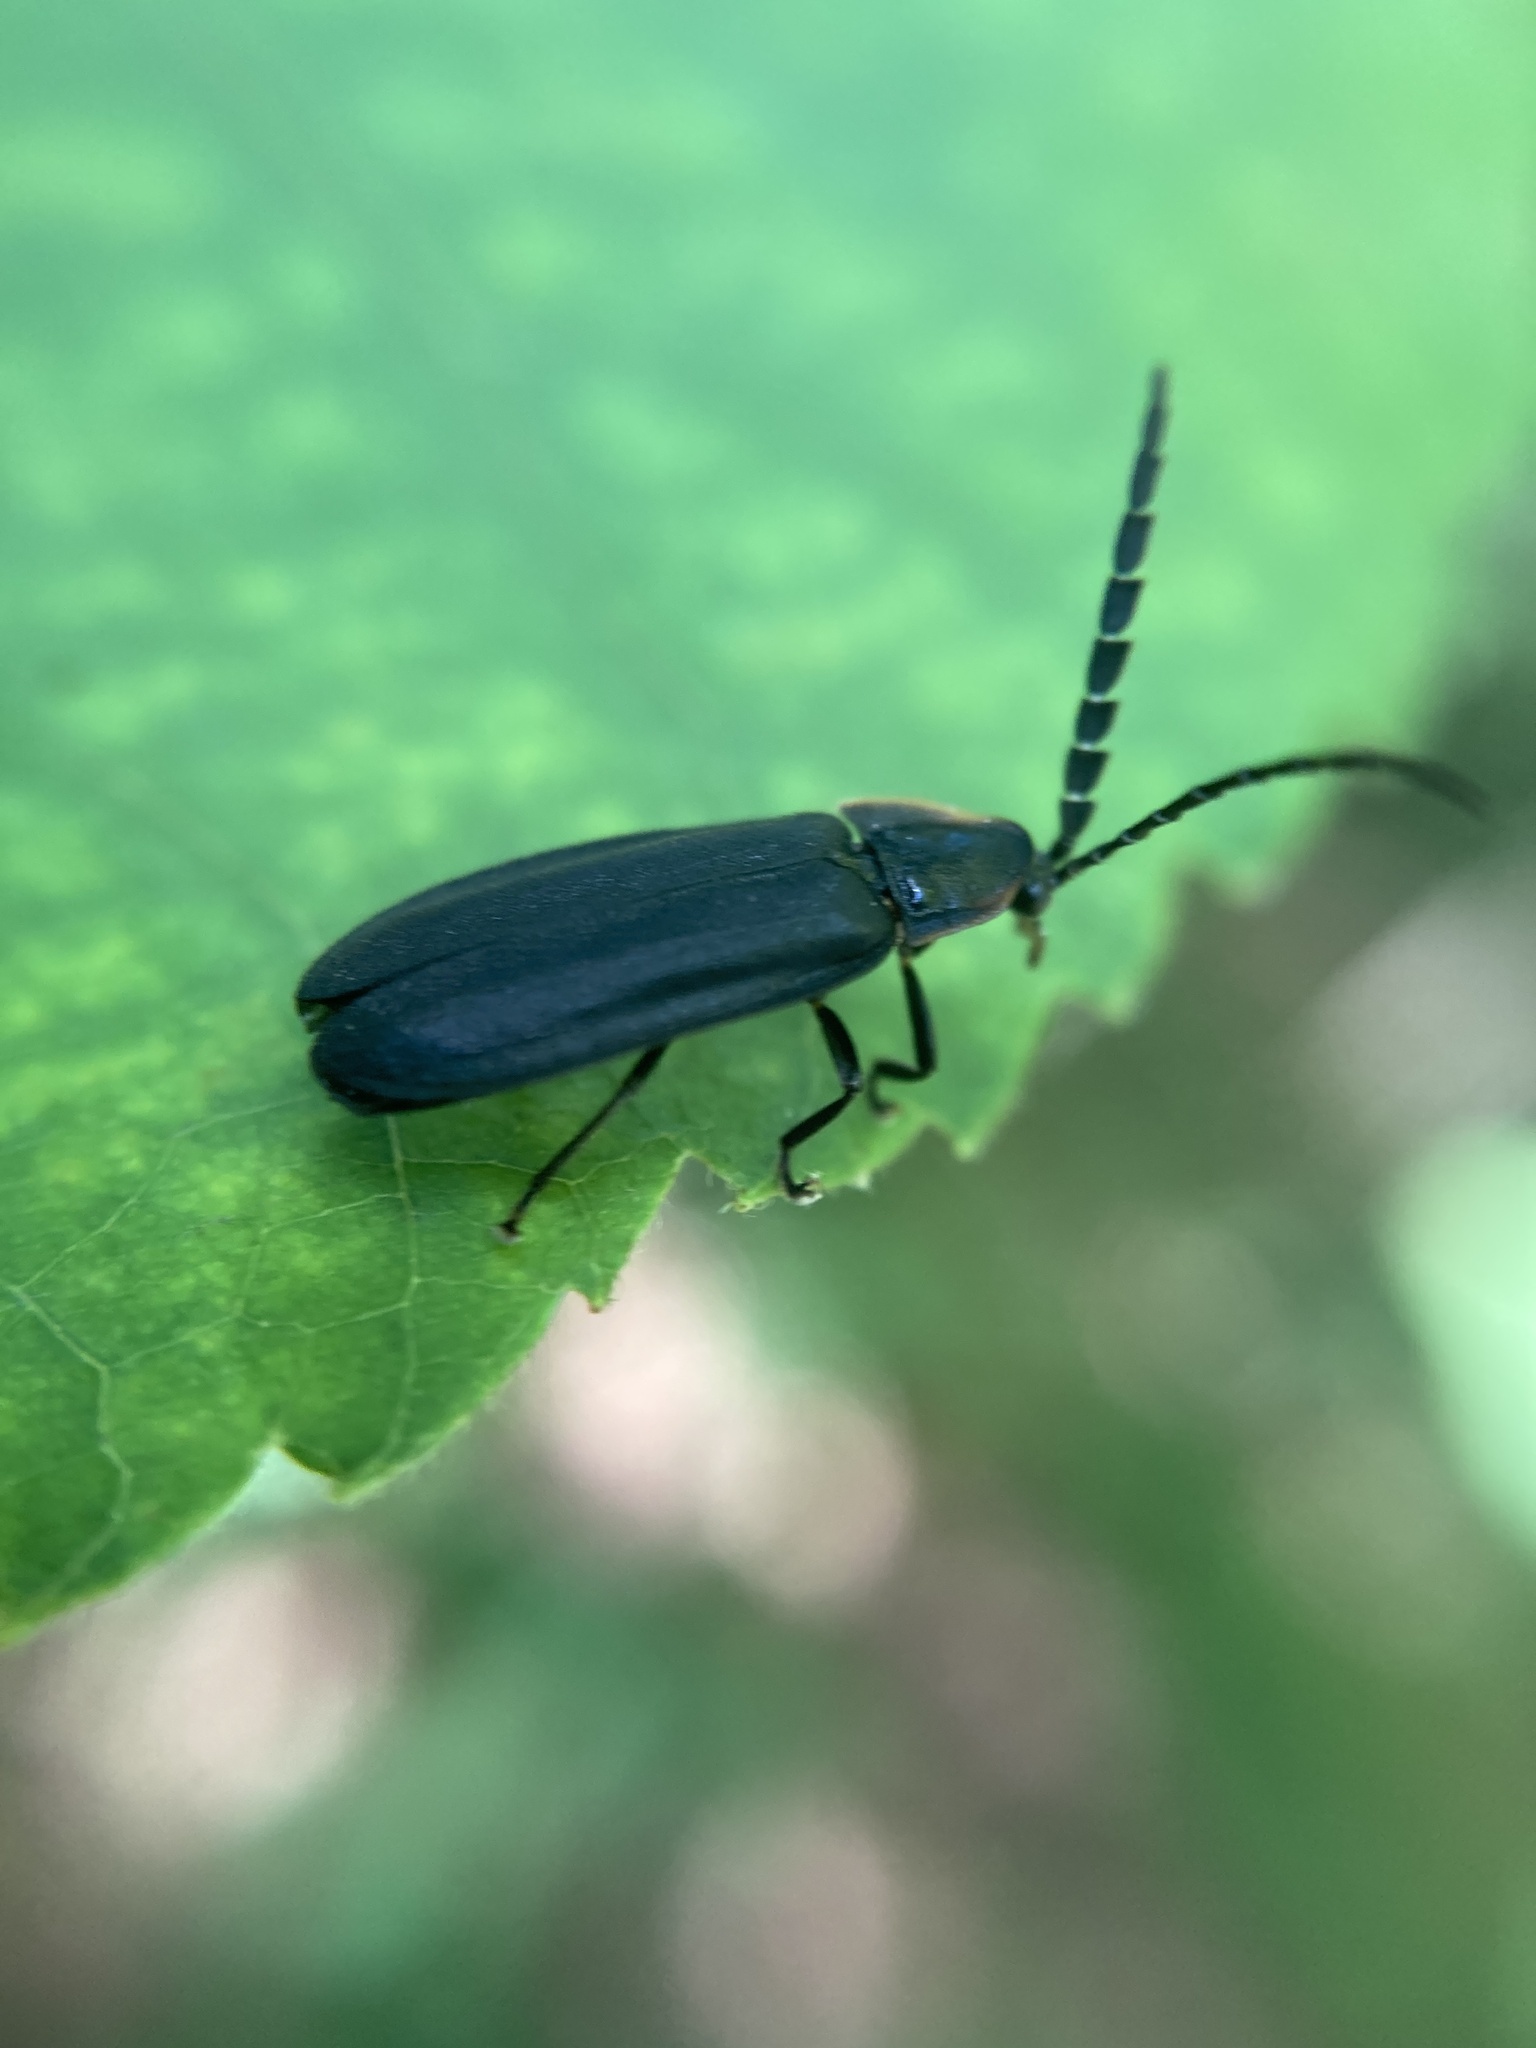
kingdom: Animalia
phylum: Arthropoda
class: Insecta
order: Coleoptera
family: Lampyridae
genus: Lucidota
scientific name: Lucidota atra
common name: Black firefly
